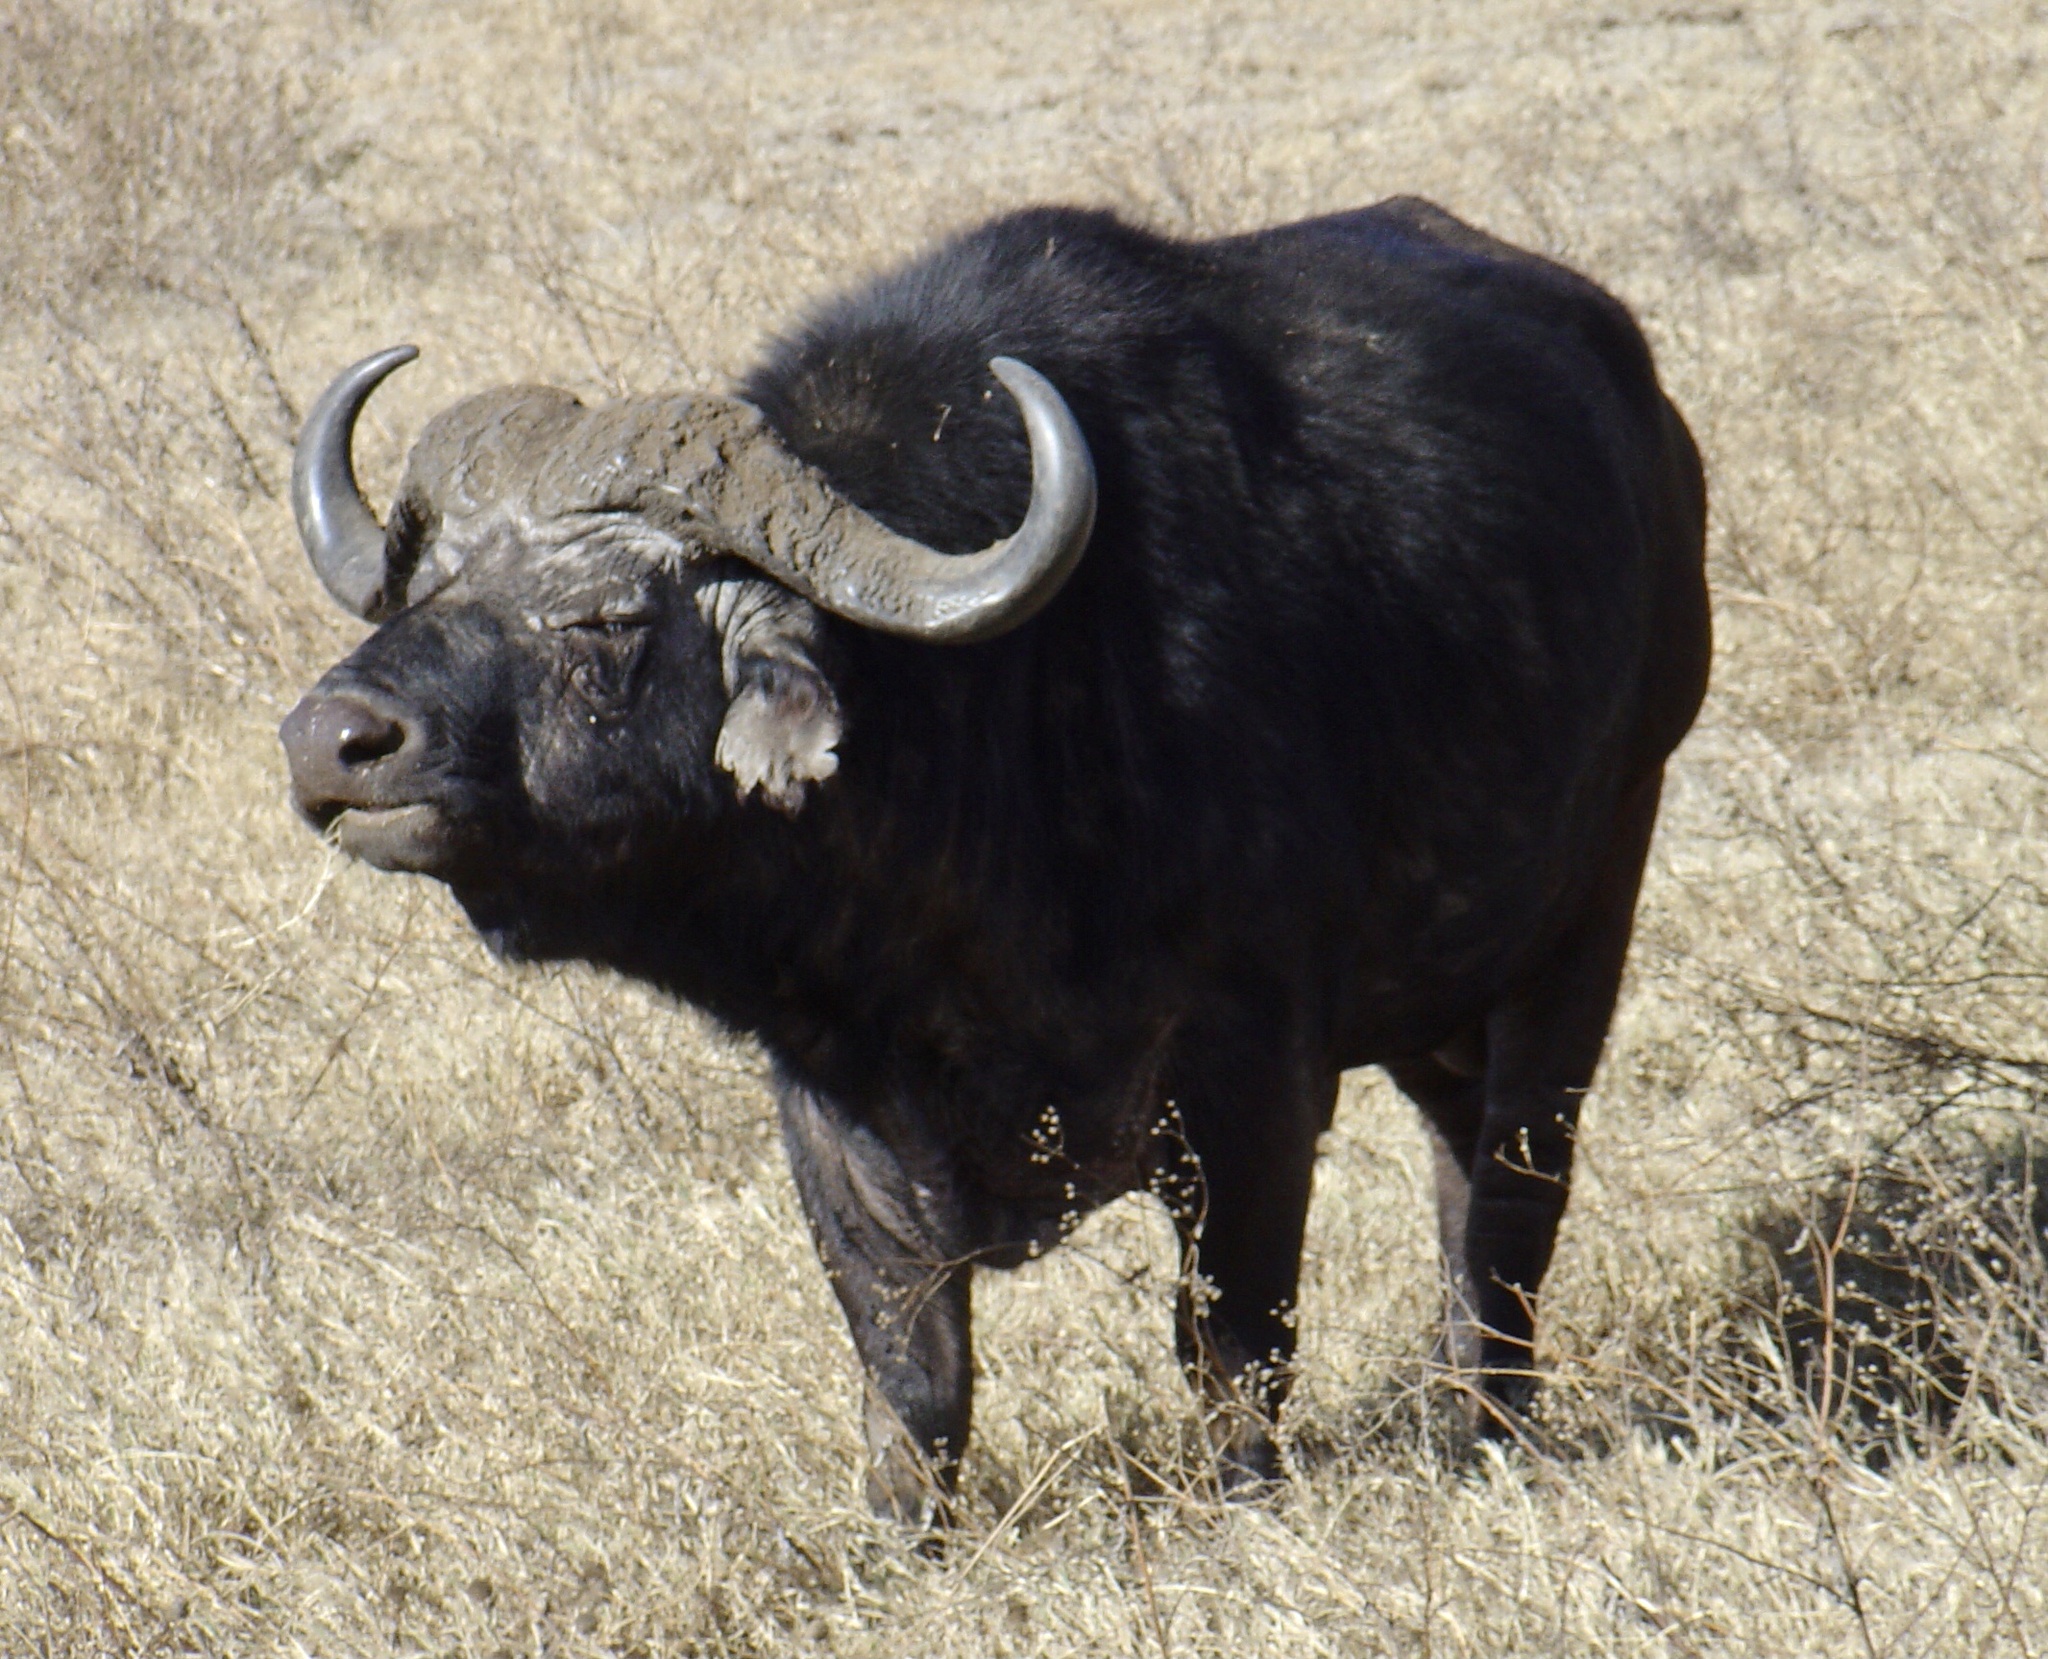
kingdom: Animalia
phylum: Chordata
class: Mammalia
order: Artiodactyla
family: Bovidae
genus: Syncerus
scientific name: Syncerus caffer
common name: African buffalo
